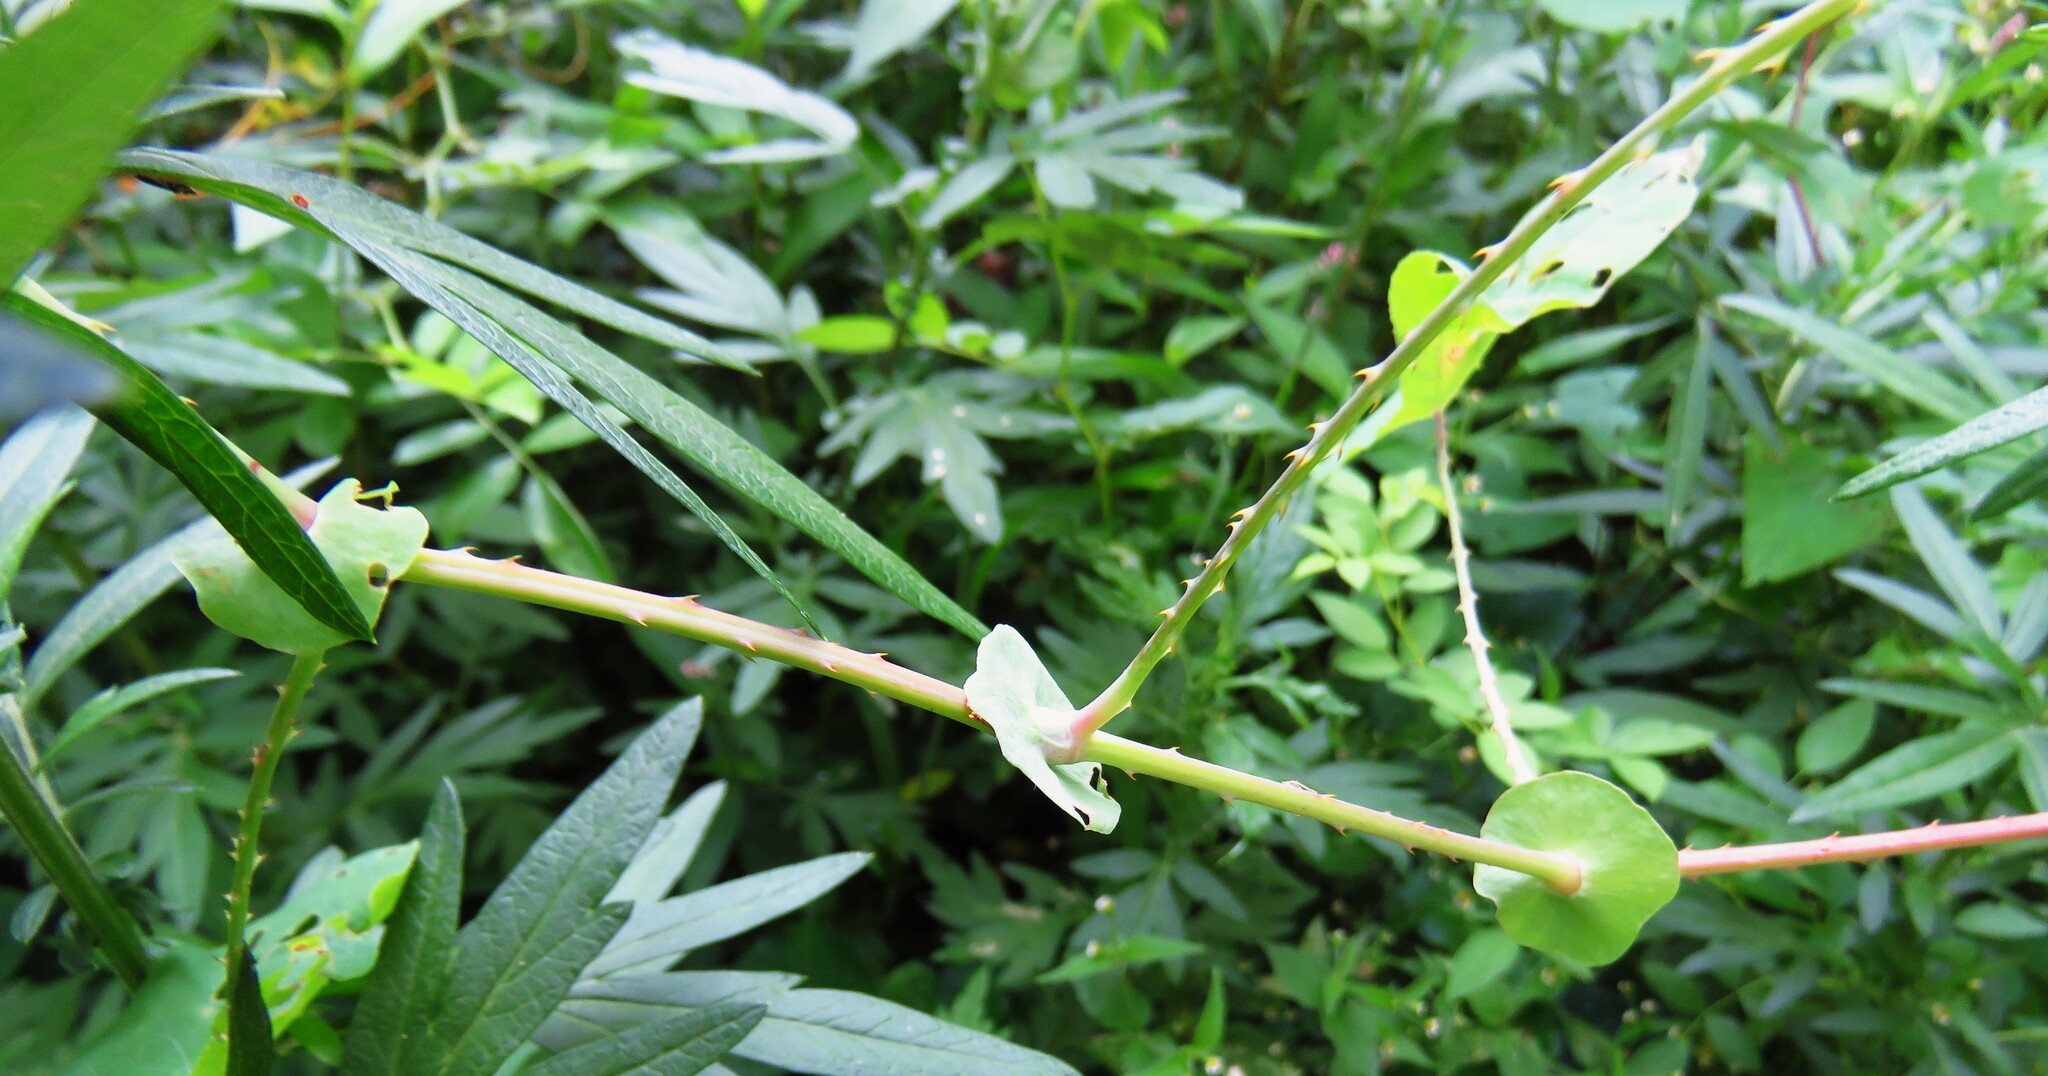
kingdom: Plantae
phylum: Tracheophyta
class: Magnoliopsida
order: Caryophyllales
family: Polygonaceae
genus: Persicaria
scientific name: Persicaria perfoliata
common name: Asiatic tearthumb
